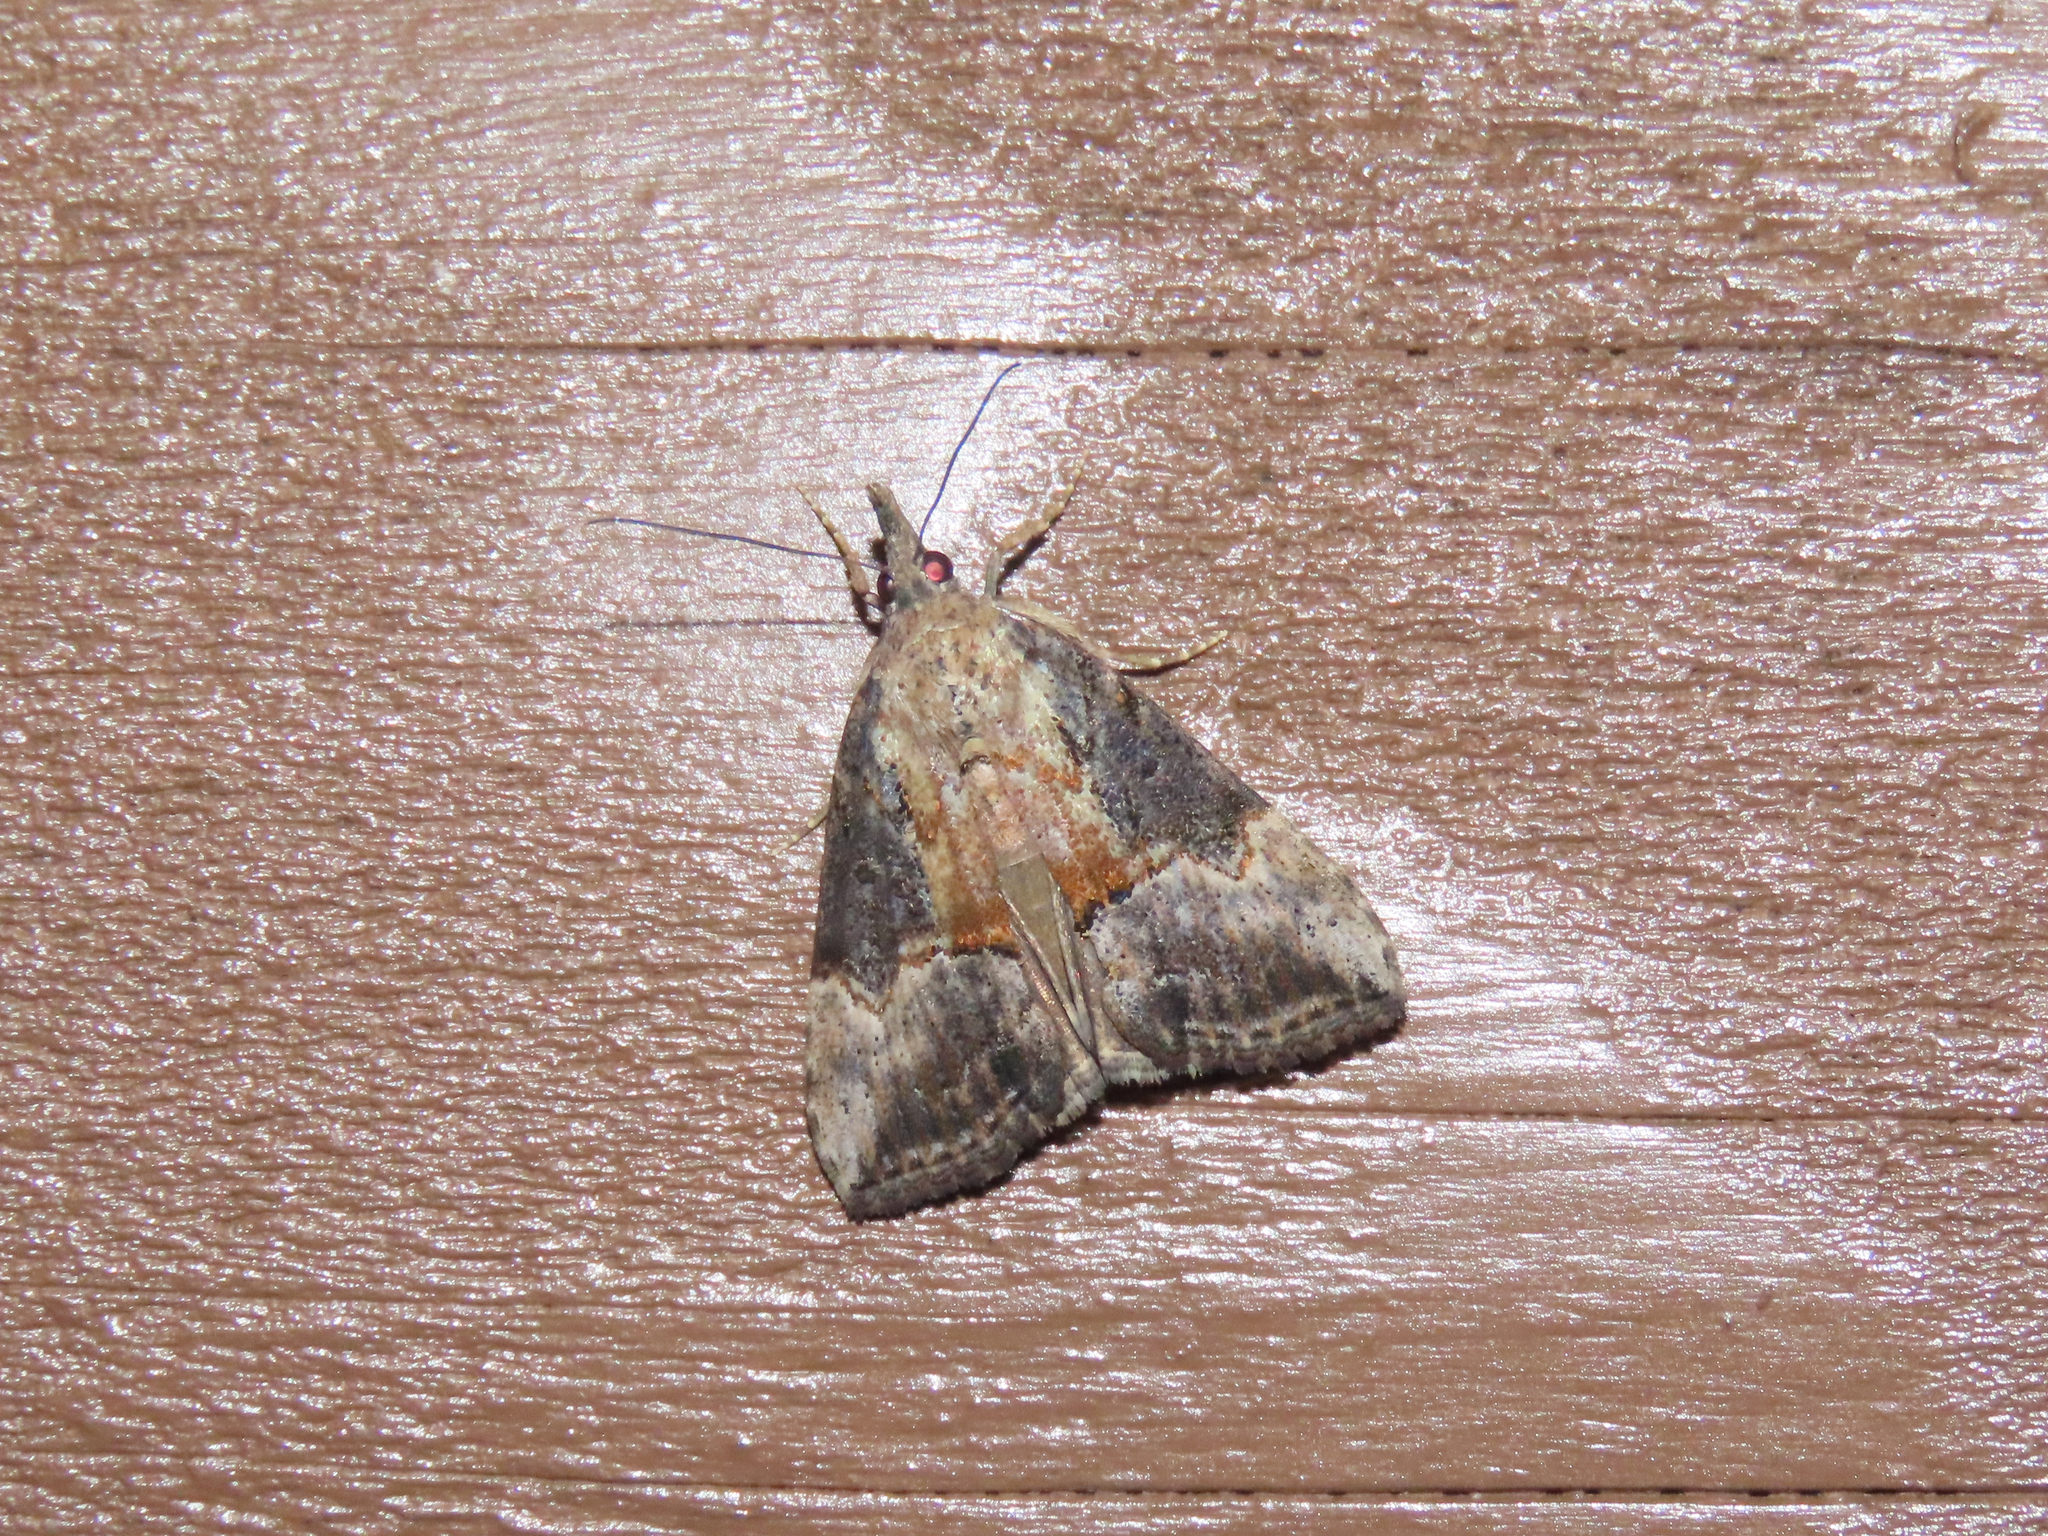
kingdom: Animalia
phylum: Arthropoda
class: Insecta
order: Lepidoptera
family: Erebidae
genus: Hypena
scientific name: Hypena scabra
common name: Green cloverworm
